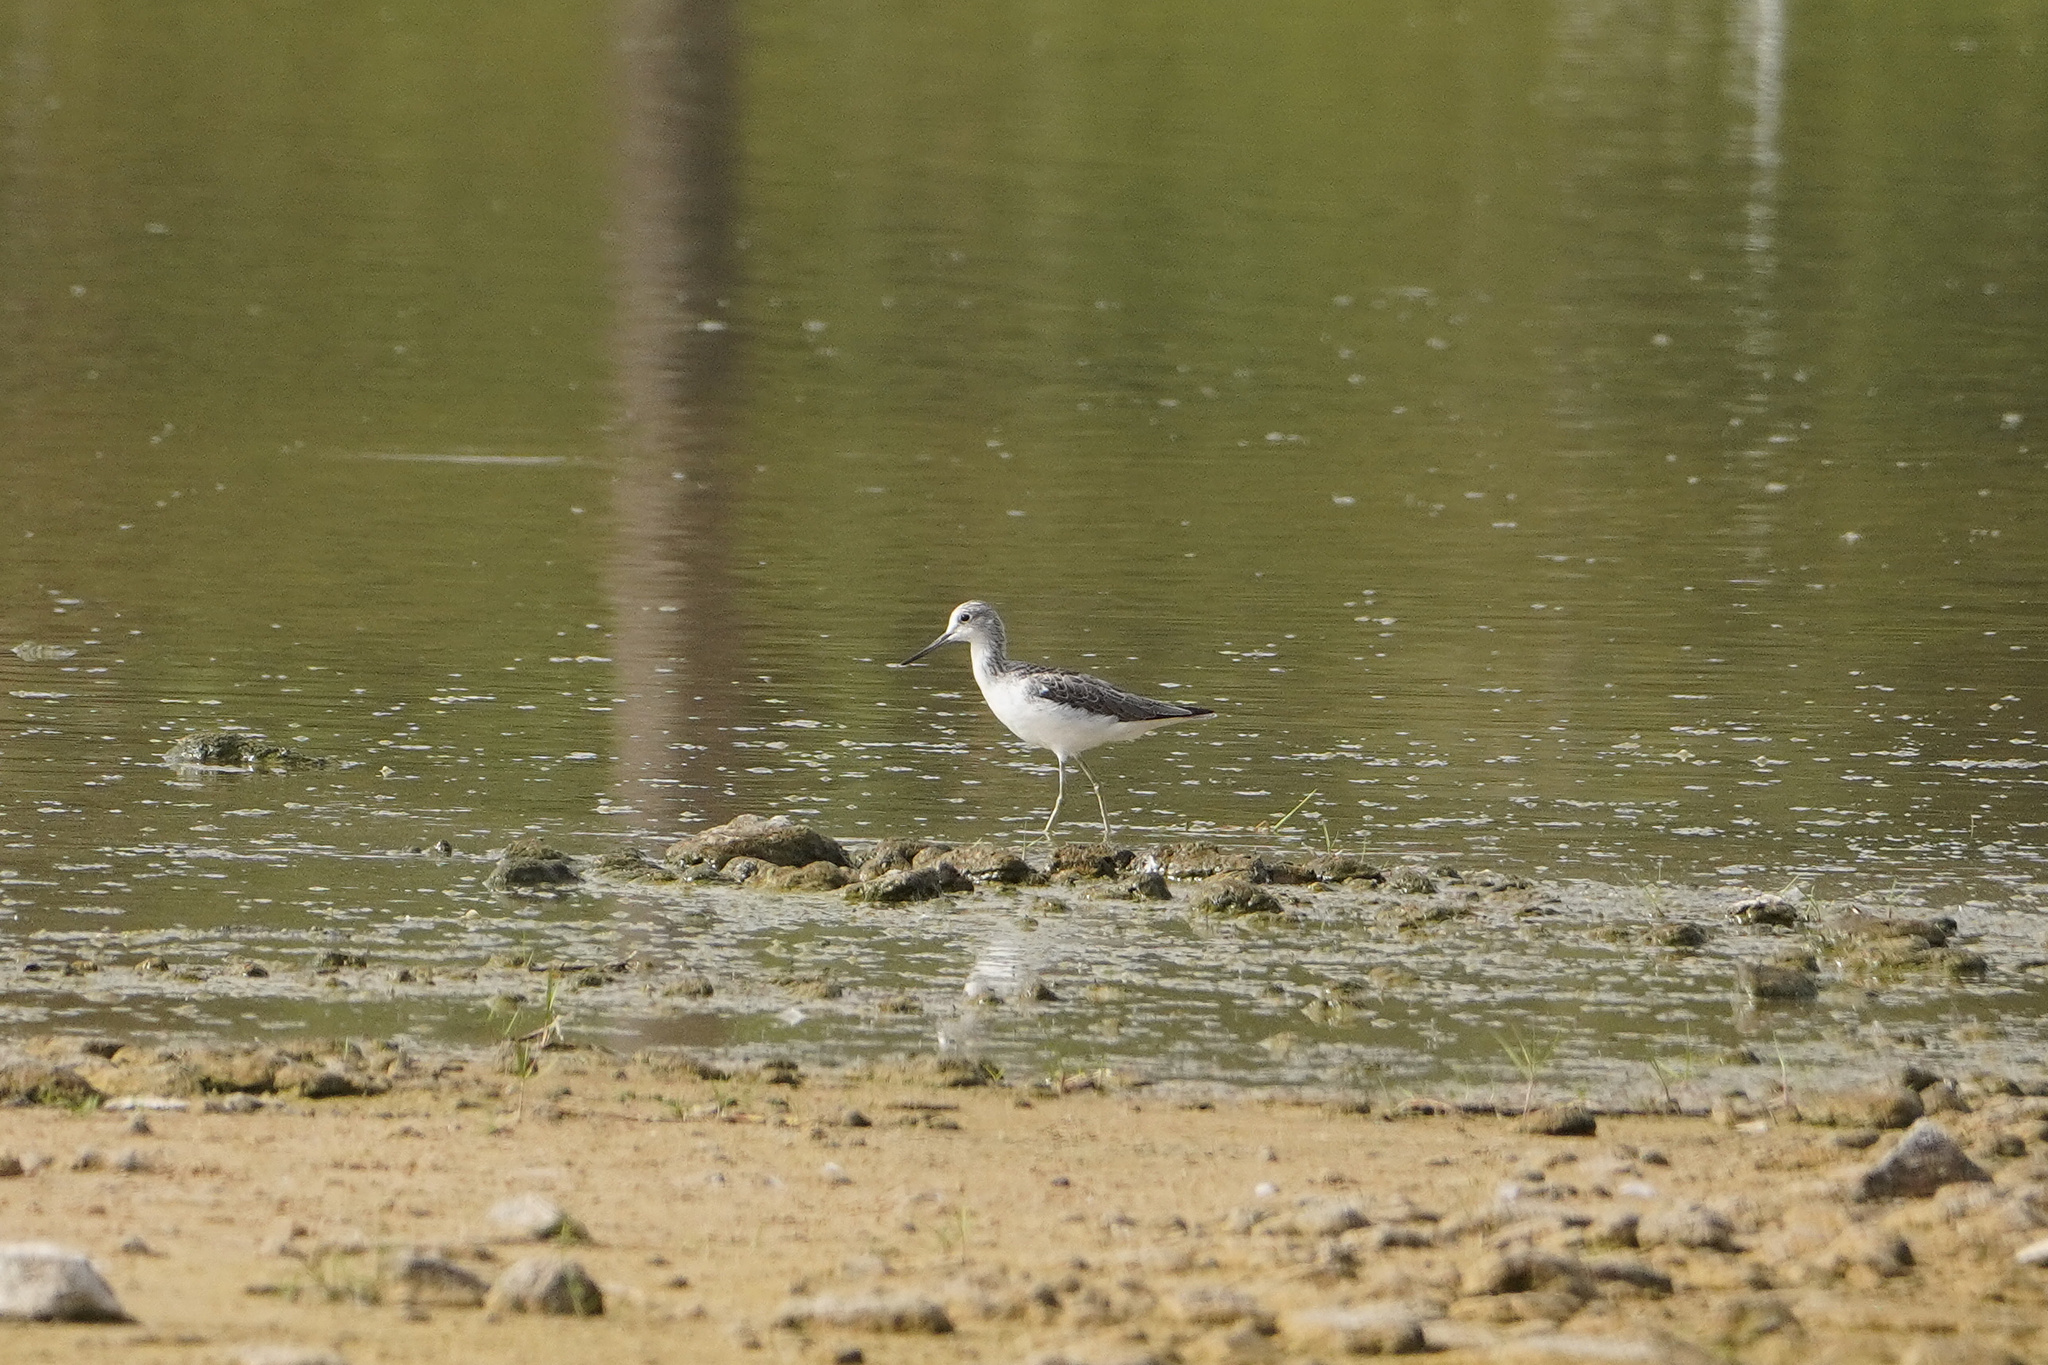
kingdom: Animalia
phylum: Chordata
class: Aves
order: Charadriiformes
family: Scolopacidae
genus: Tringa
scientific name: Tringa nebularia
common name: Common greenshank
